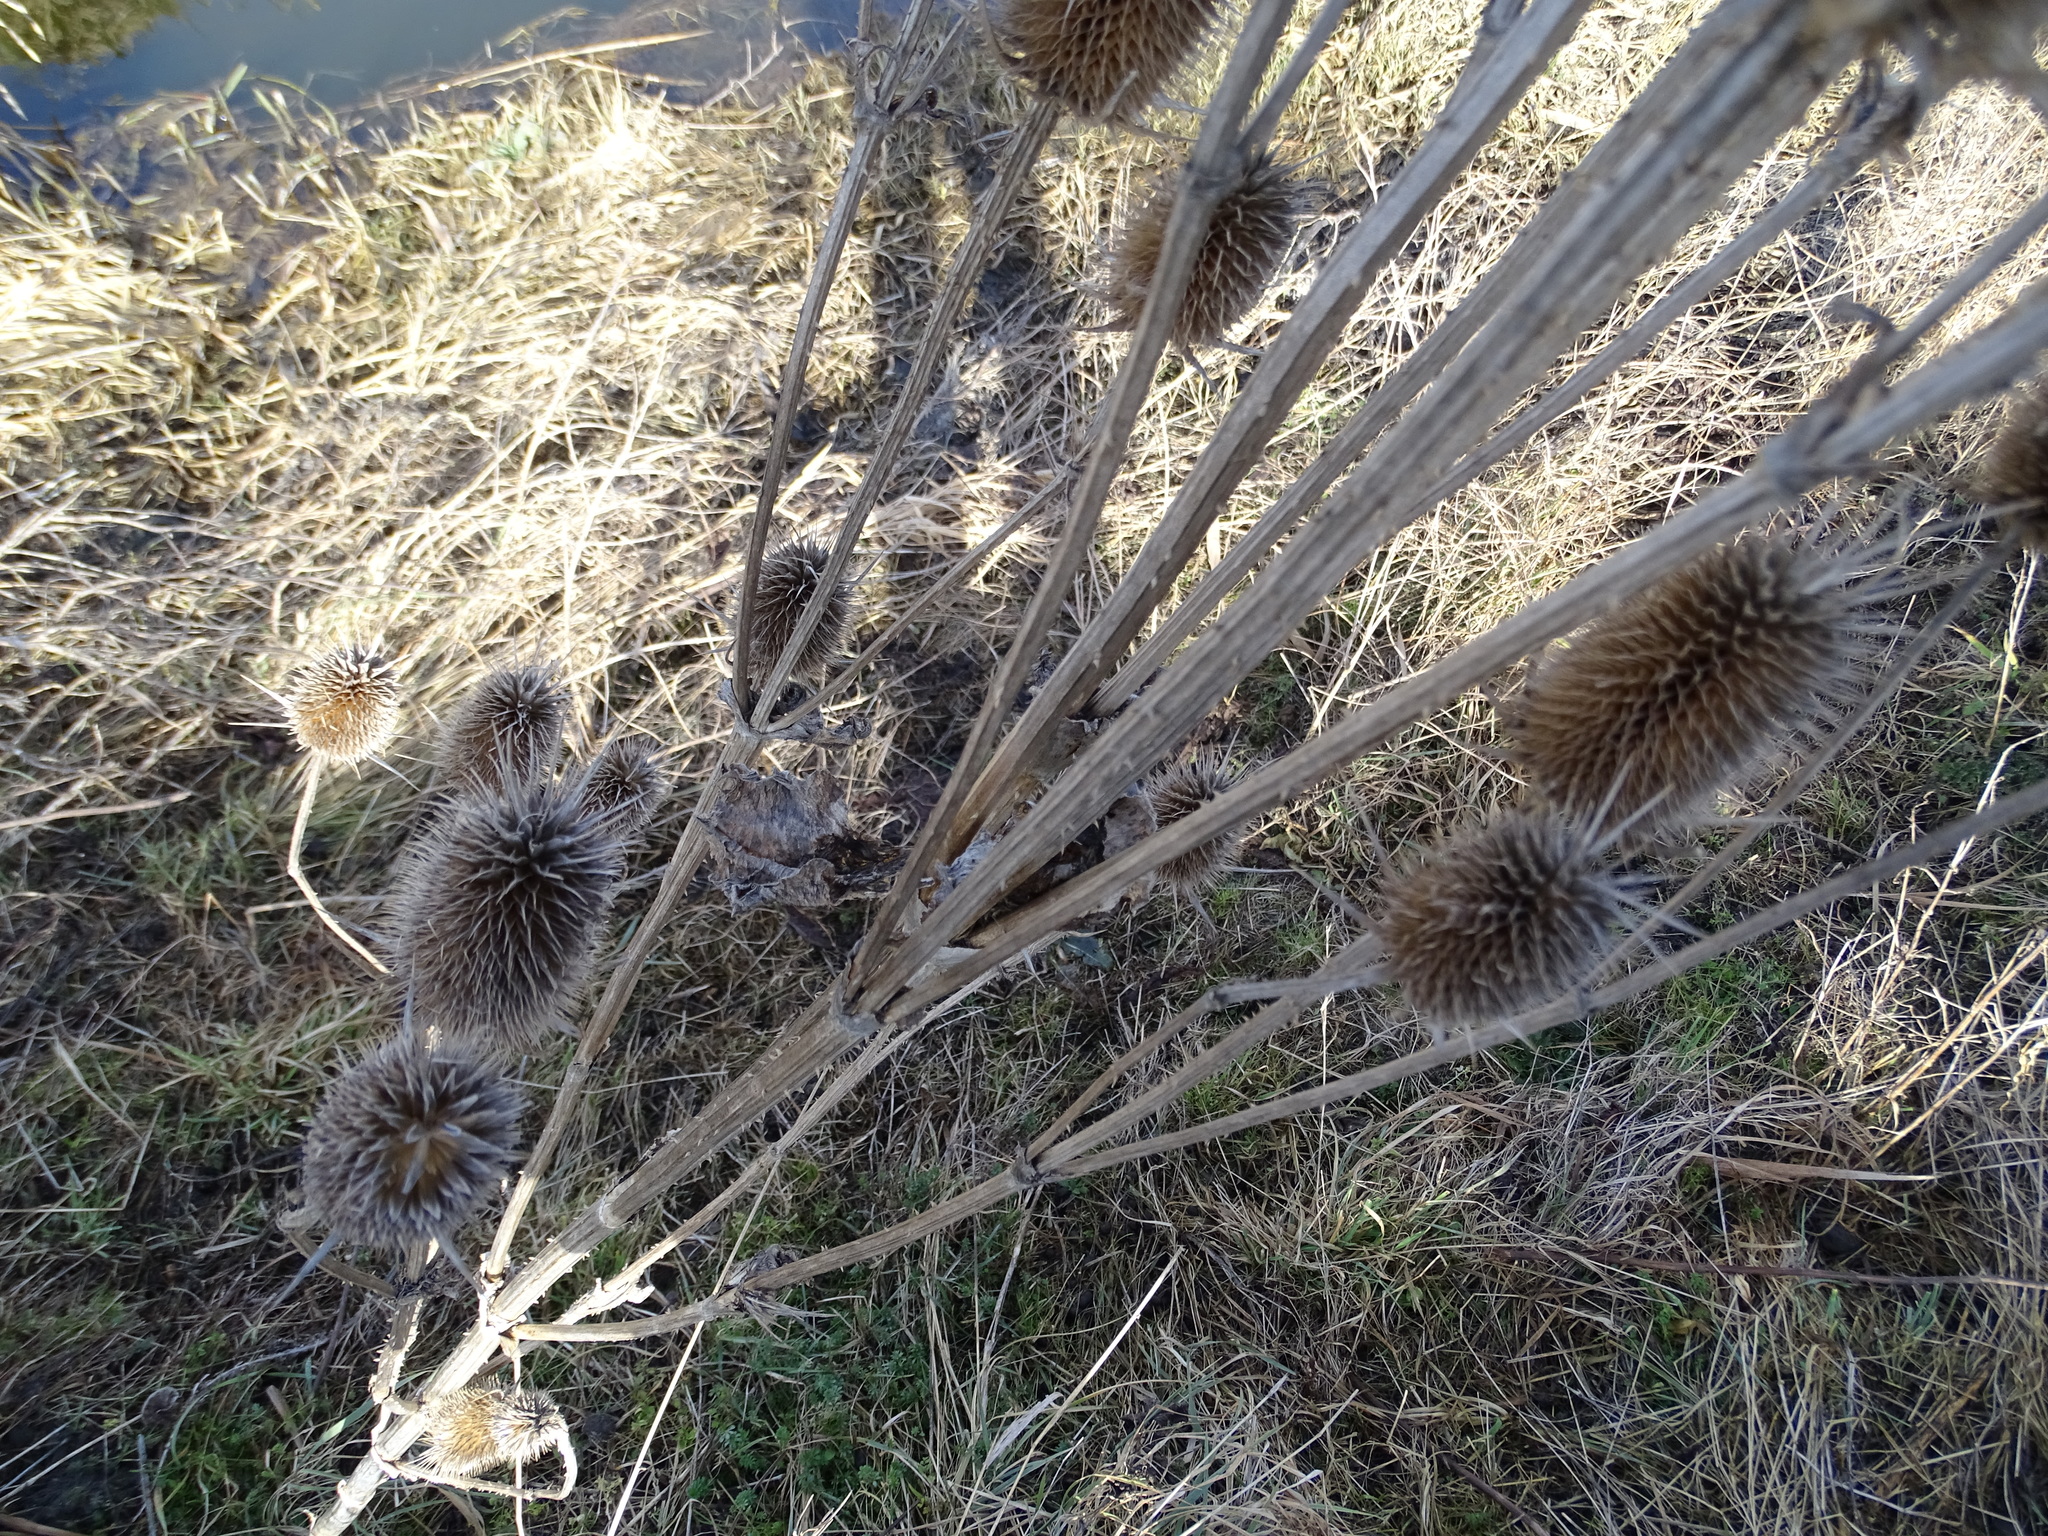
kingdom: Plantae
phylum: Tracheophyta
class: Magnoliopsida
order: Dipsacales
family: Caprifoliaceae
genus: Dipsacus
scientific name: Dipsacus laciniatus
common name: Cut-leaved teasel
